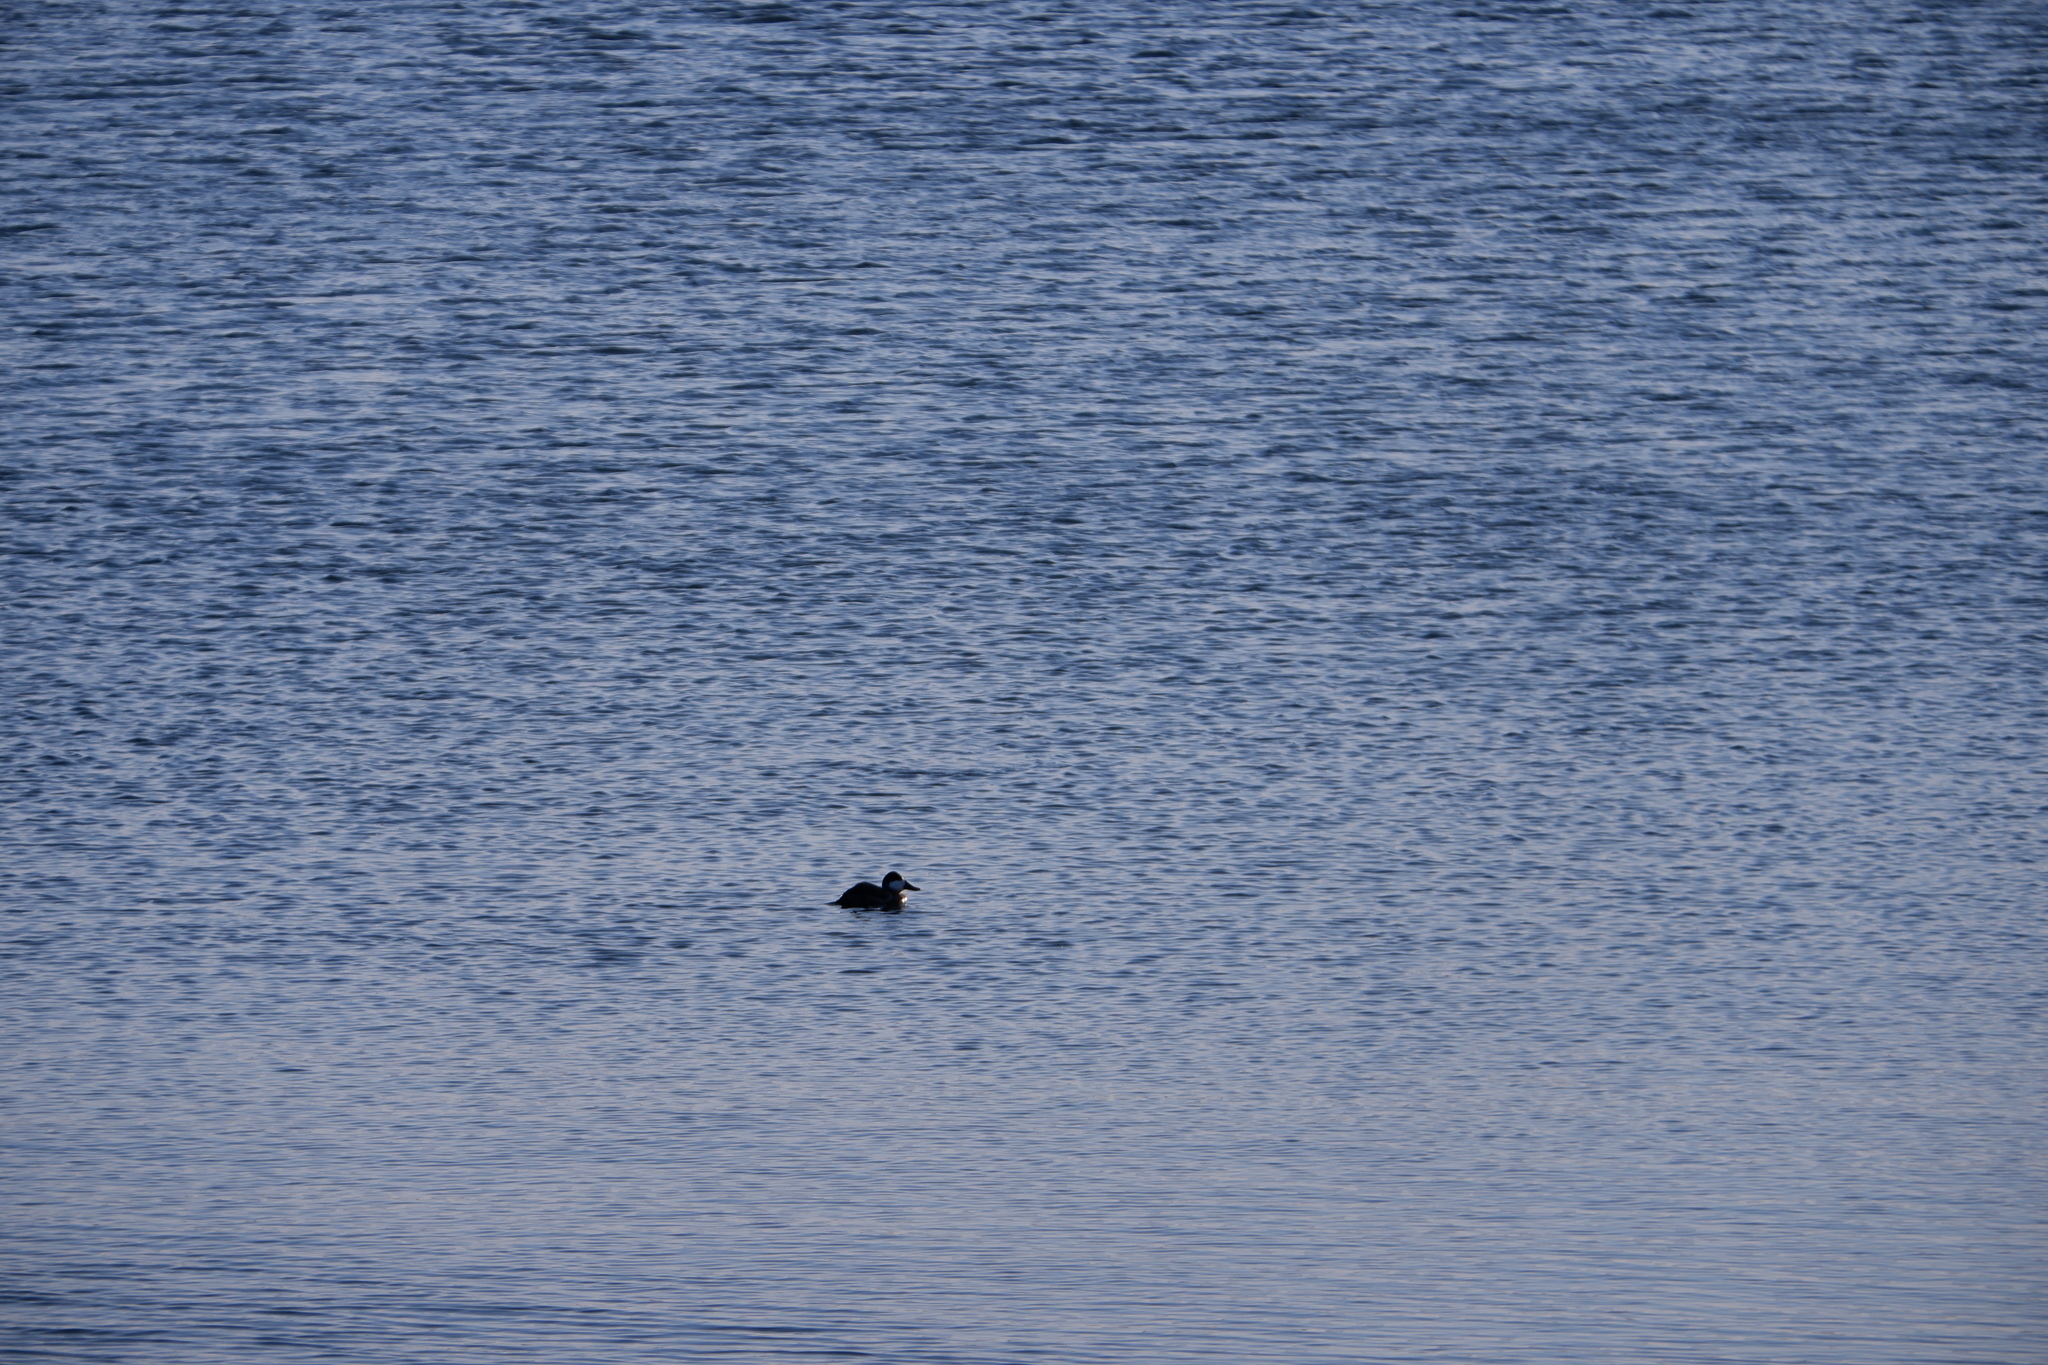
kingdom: Animalia
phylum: Chordata
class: Aves
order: Anseriformes
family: Anatidae
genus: Oxyura
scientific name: Oxyura jamaicensis
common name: Ruddy duck
